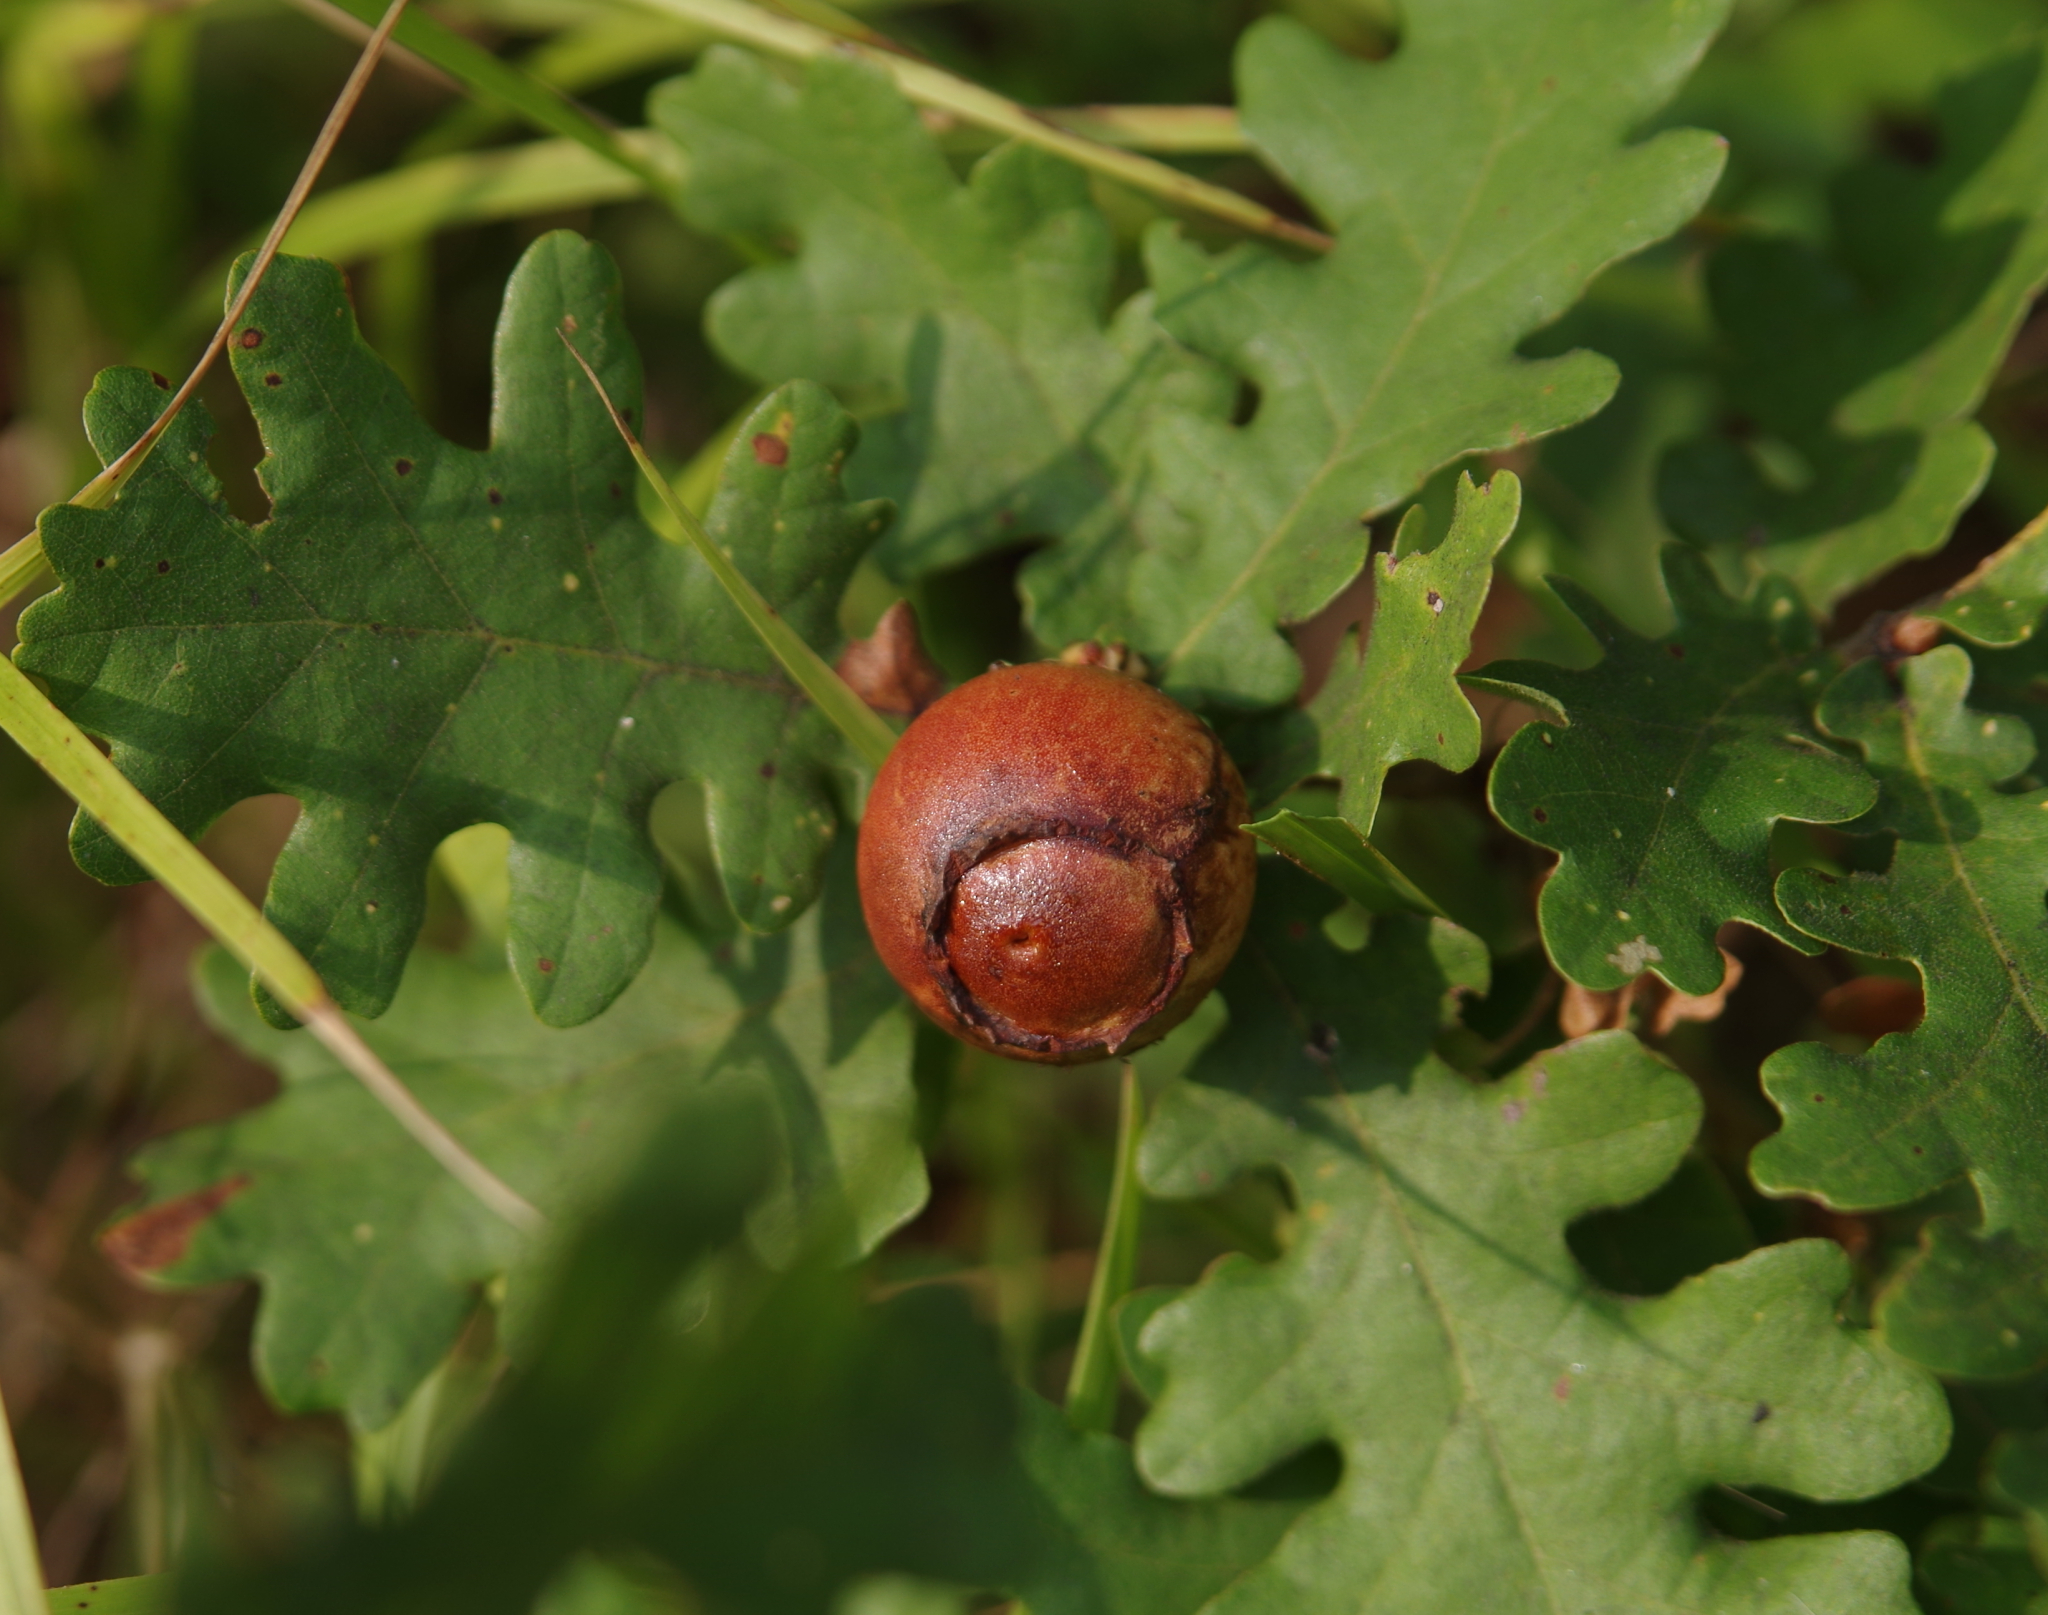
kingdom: Animalia
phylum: Arthropoda
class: Insecta
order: Hymenoptera
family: Cynipidae
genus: Andricus
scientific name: Andricus quercustozae
